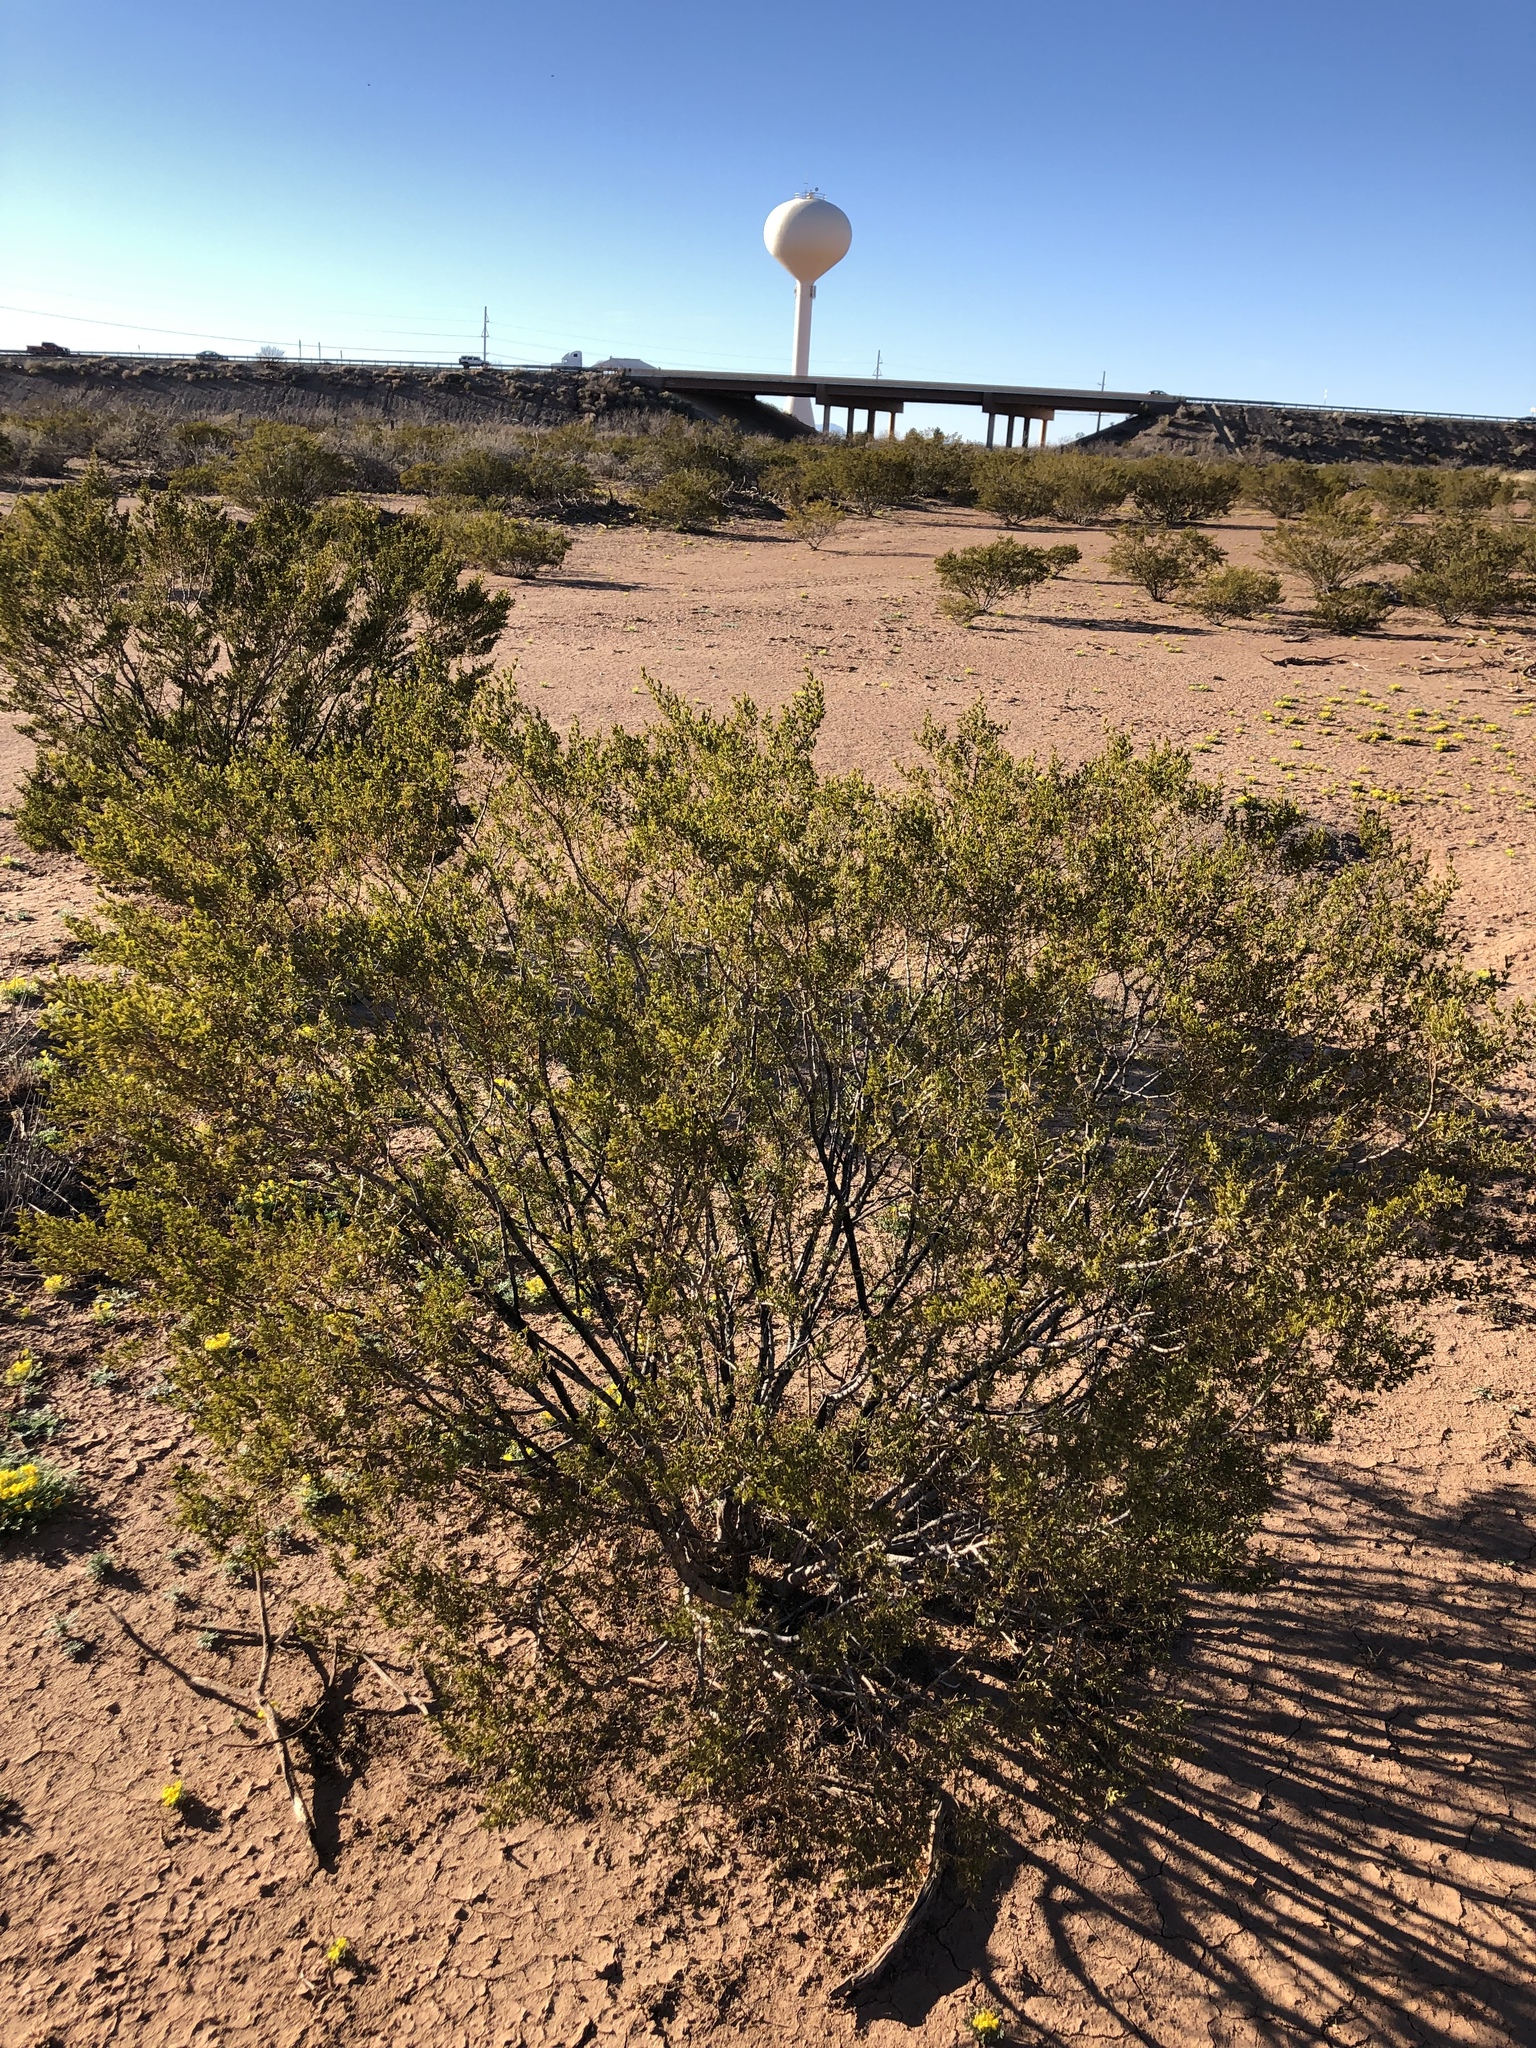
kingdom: Plantae
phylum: Tracheophyta
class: Magnoliopsida
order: Zygophyllales
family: Zygophyllaceae
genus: Larrea
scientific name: Larrea tridentata
